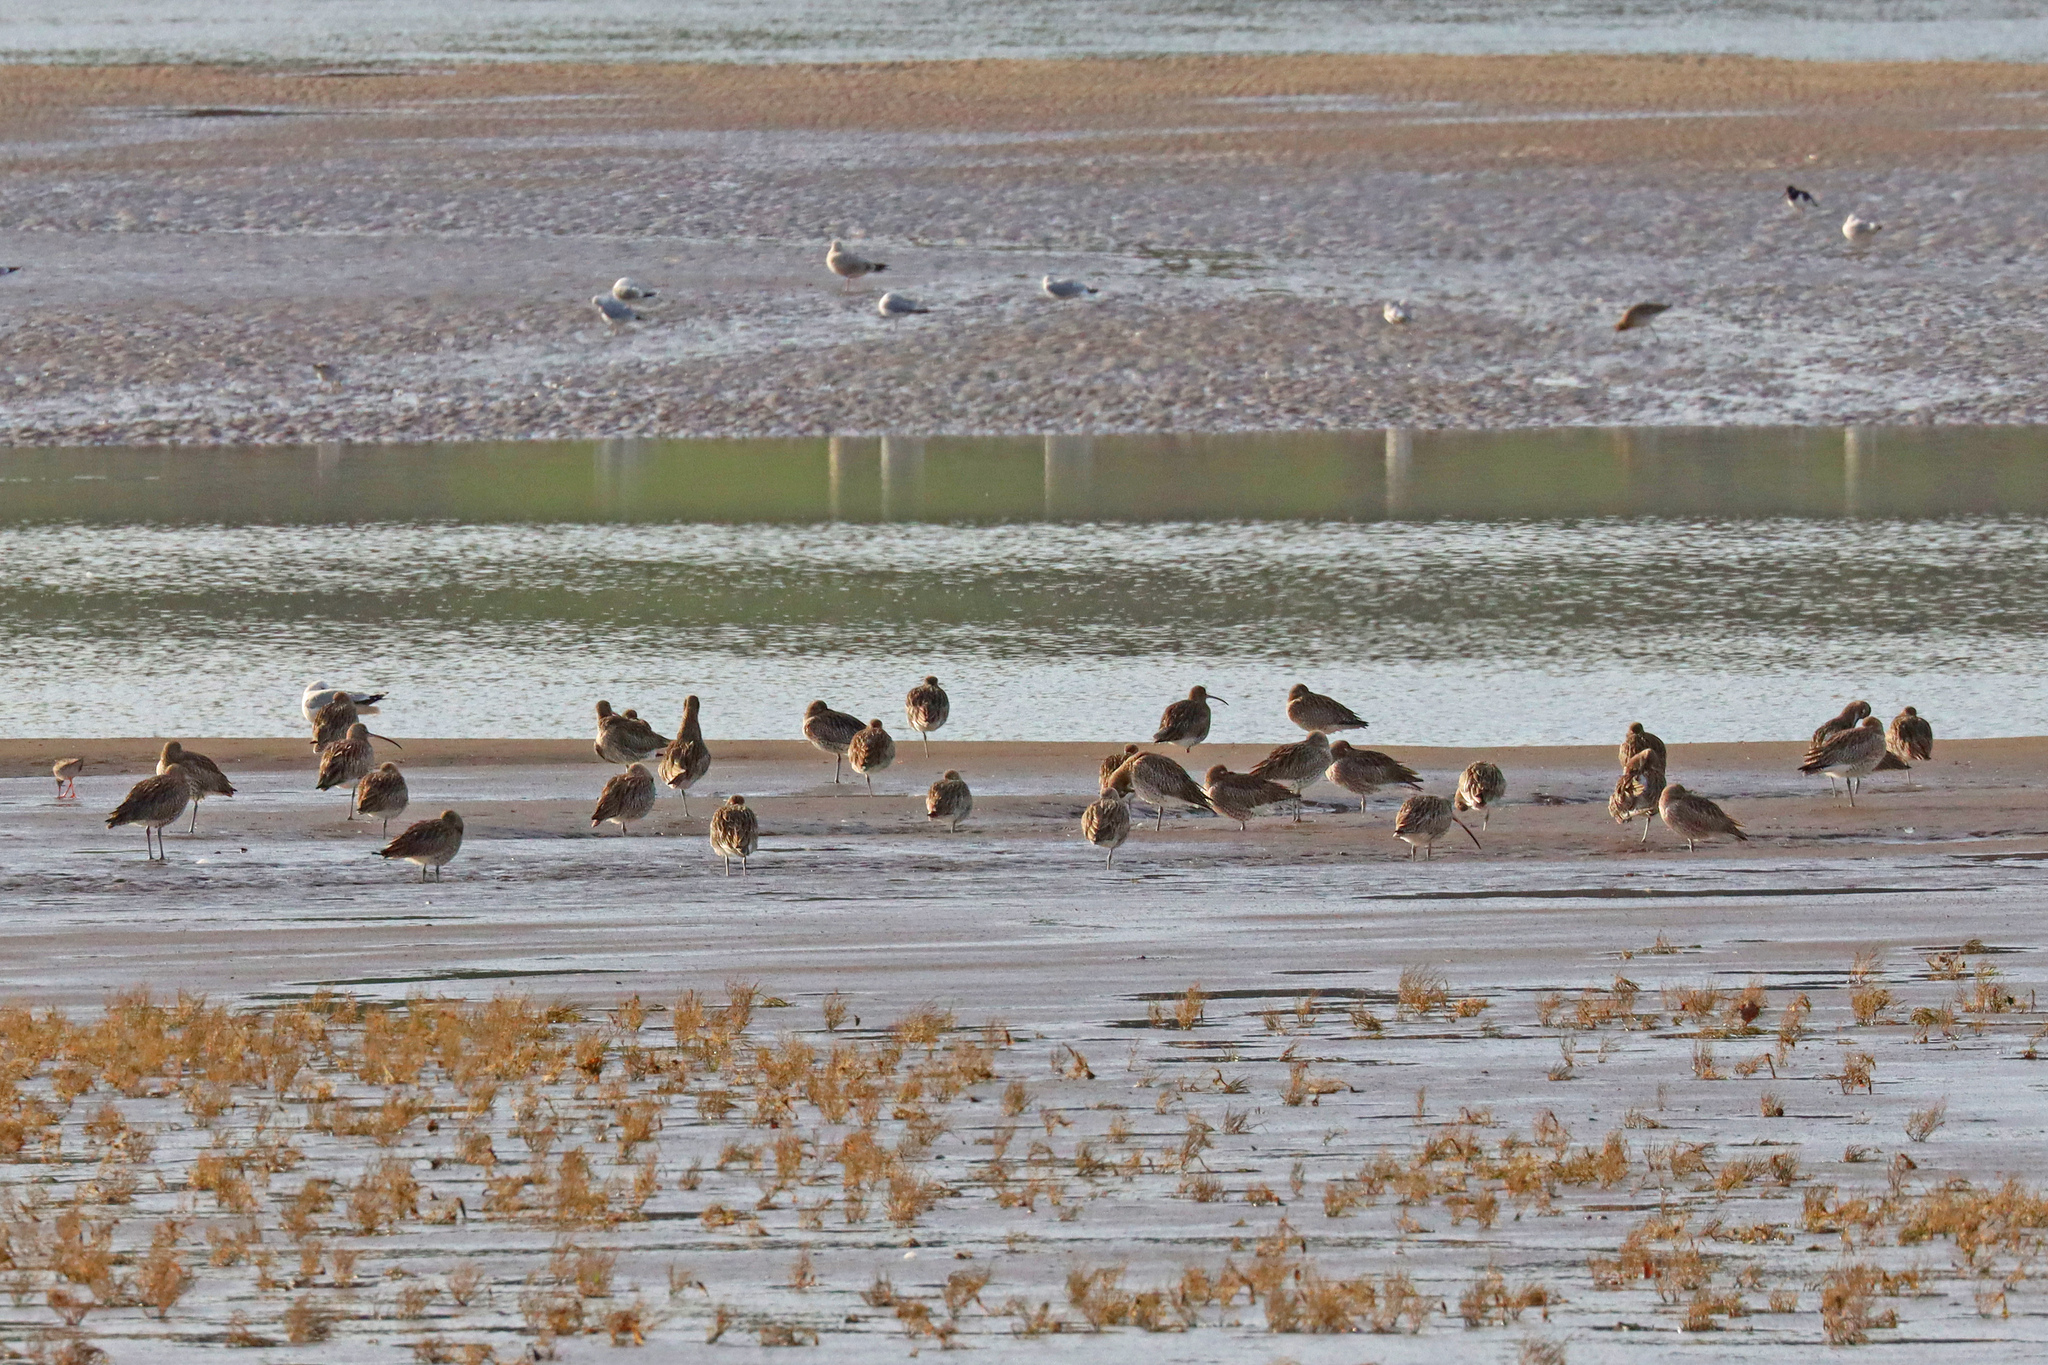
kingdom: Animalia
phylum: Chordata
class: Aves
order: Charadriiformes
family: Scolopacidae
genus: Numenius
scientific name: Numenius arquata
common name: Eurasian curlew
